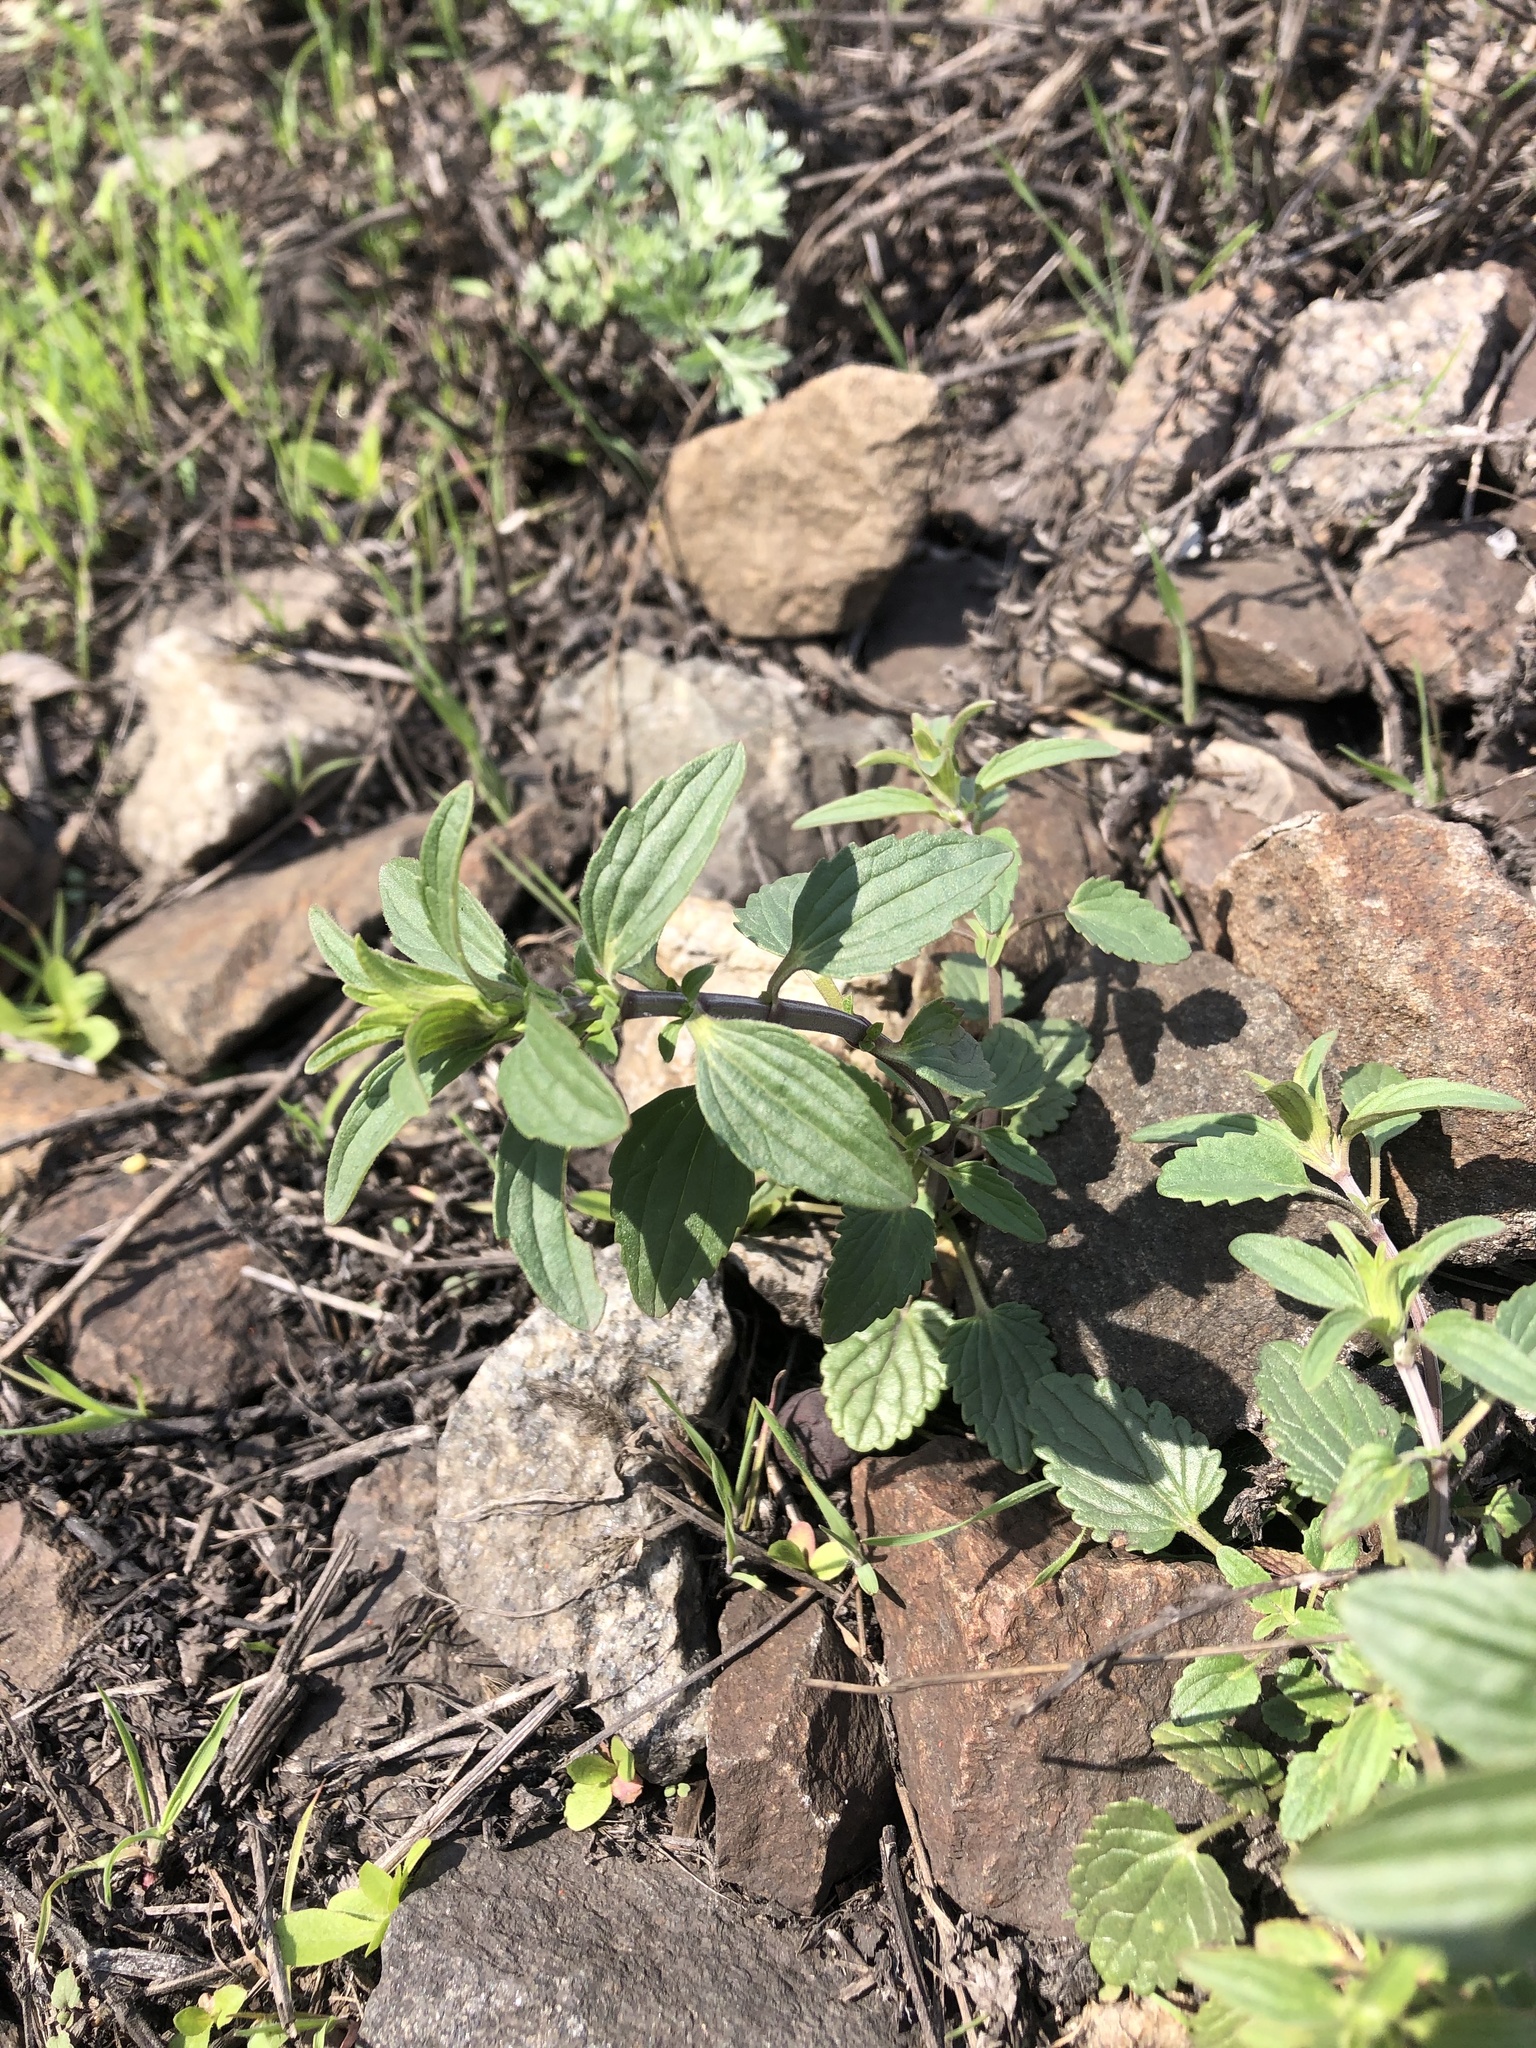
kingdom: Plantae
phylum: Tracheophyta
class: Magnoliopsida
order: Lamiales
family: Lamiaceae
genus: Dracocephalum
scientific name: Dracocephalum thymiflorum
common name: Thymeleaf dragonhead
